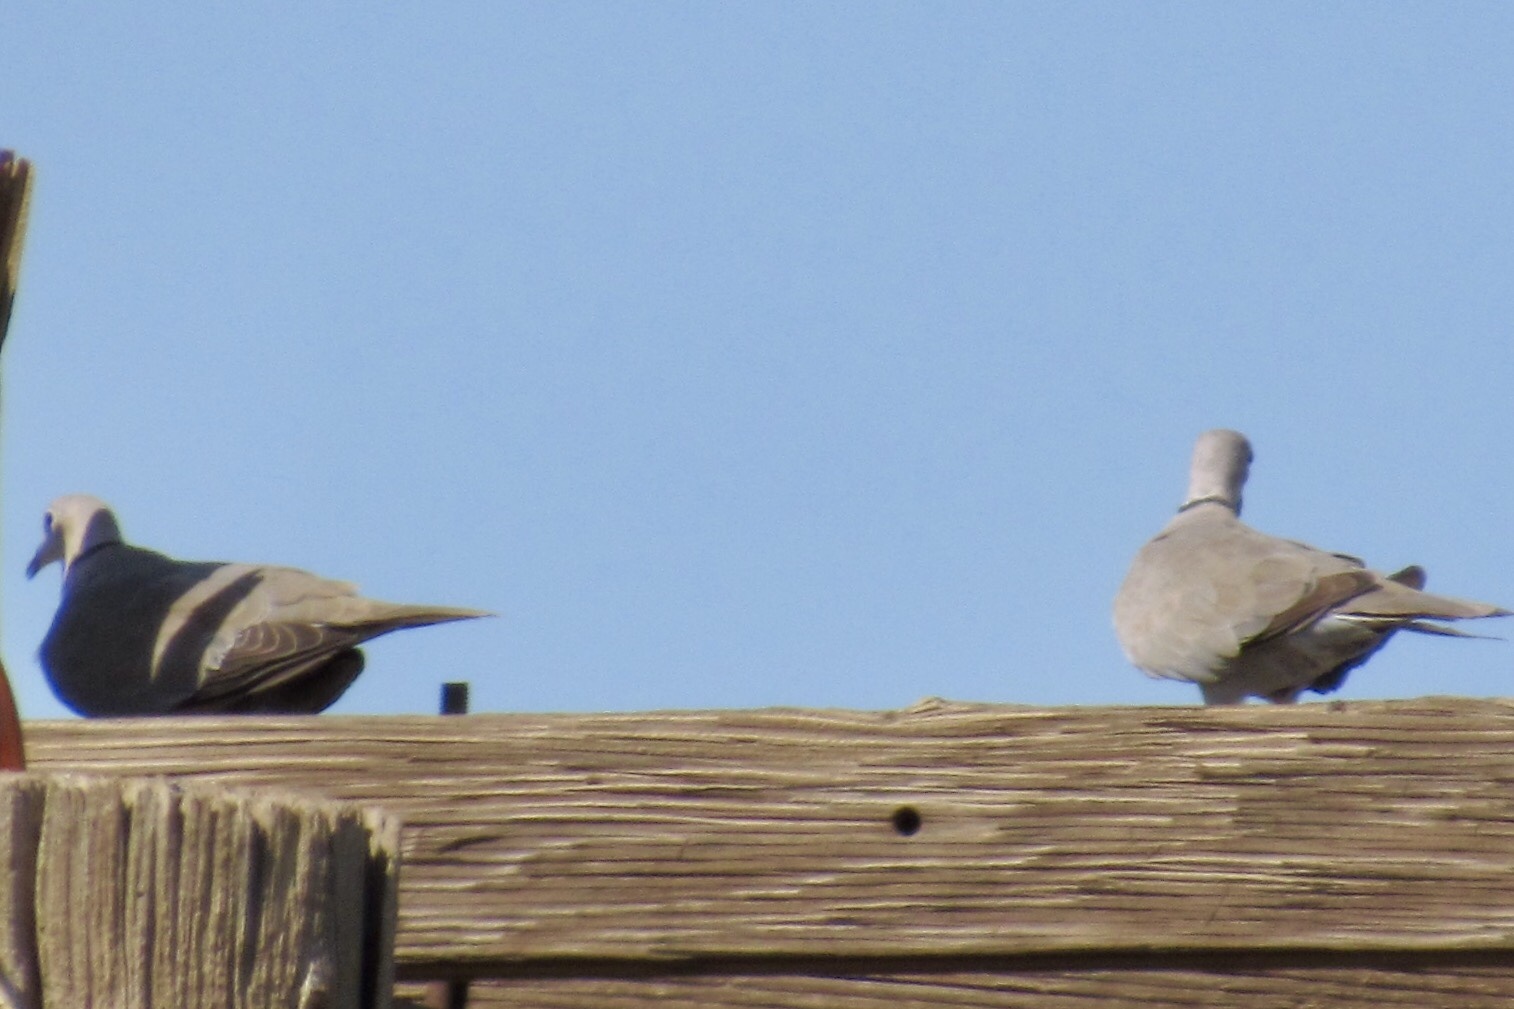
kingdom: Animalia
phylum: Chordata
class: Aves
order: Columbiformes
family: Columbidae
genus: Streptopelia
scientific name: Streptopelia decaocto
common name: Eurasian collared dove
